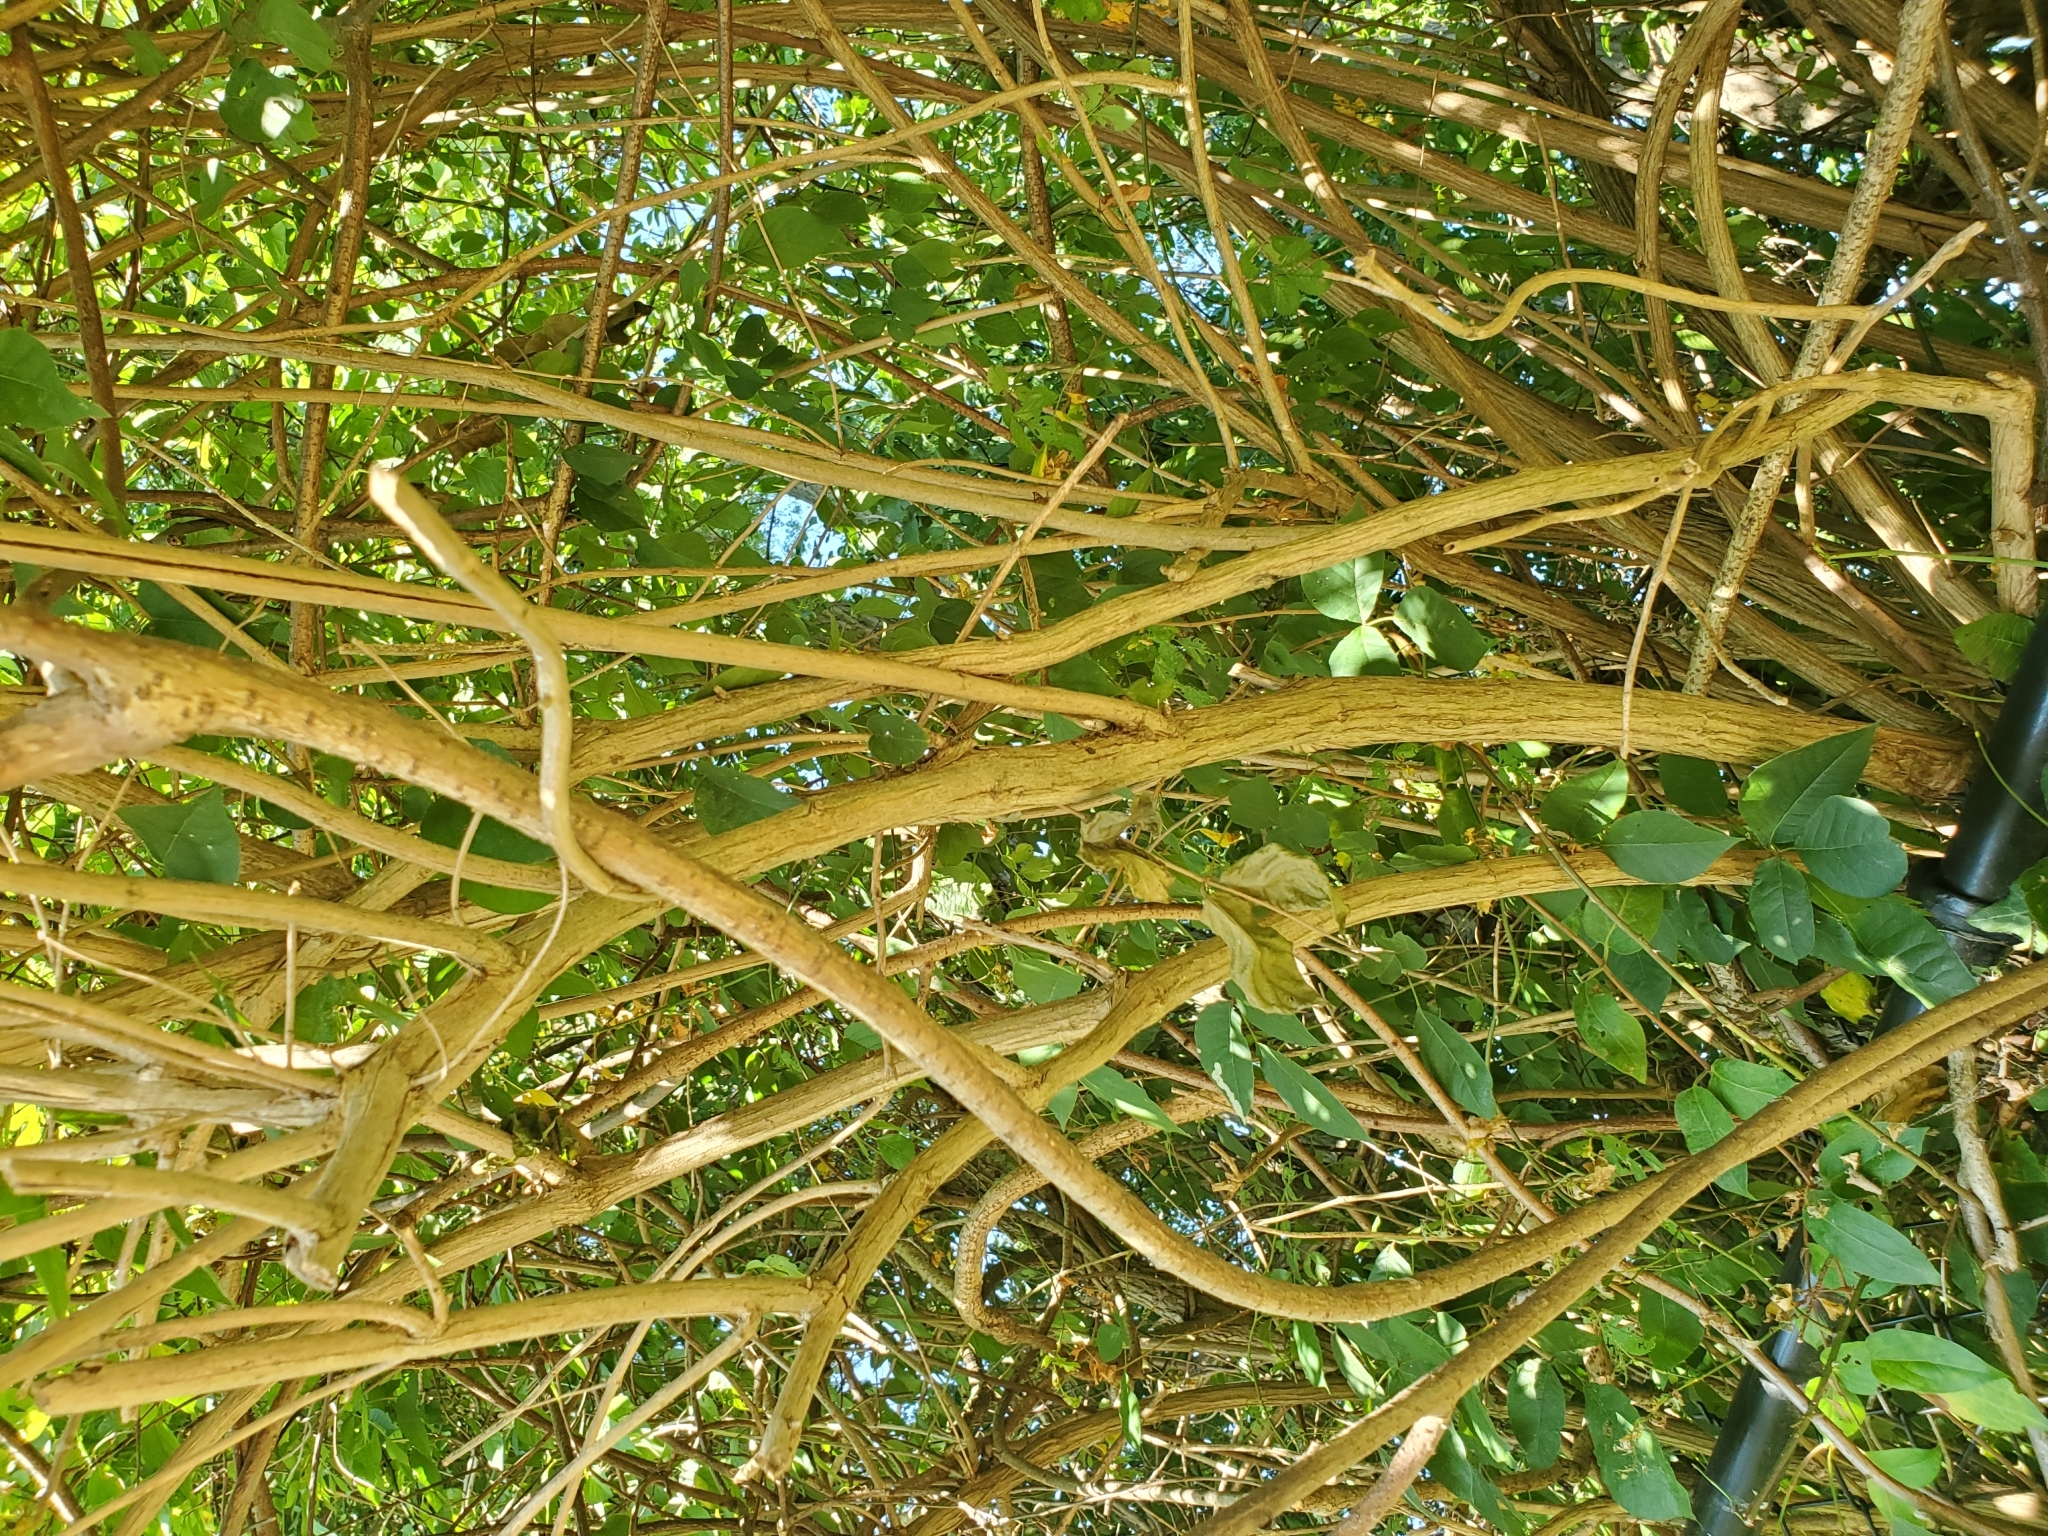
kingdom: Plantae
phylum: Tracheophyta
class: Magnoliopsida
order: Dipsacales
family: Caprifoliaceae
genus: Lonicera
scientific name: Lonicera maackii
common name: Amur honeysuckle
